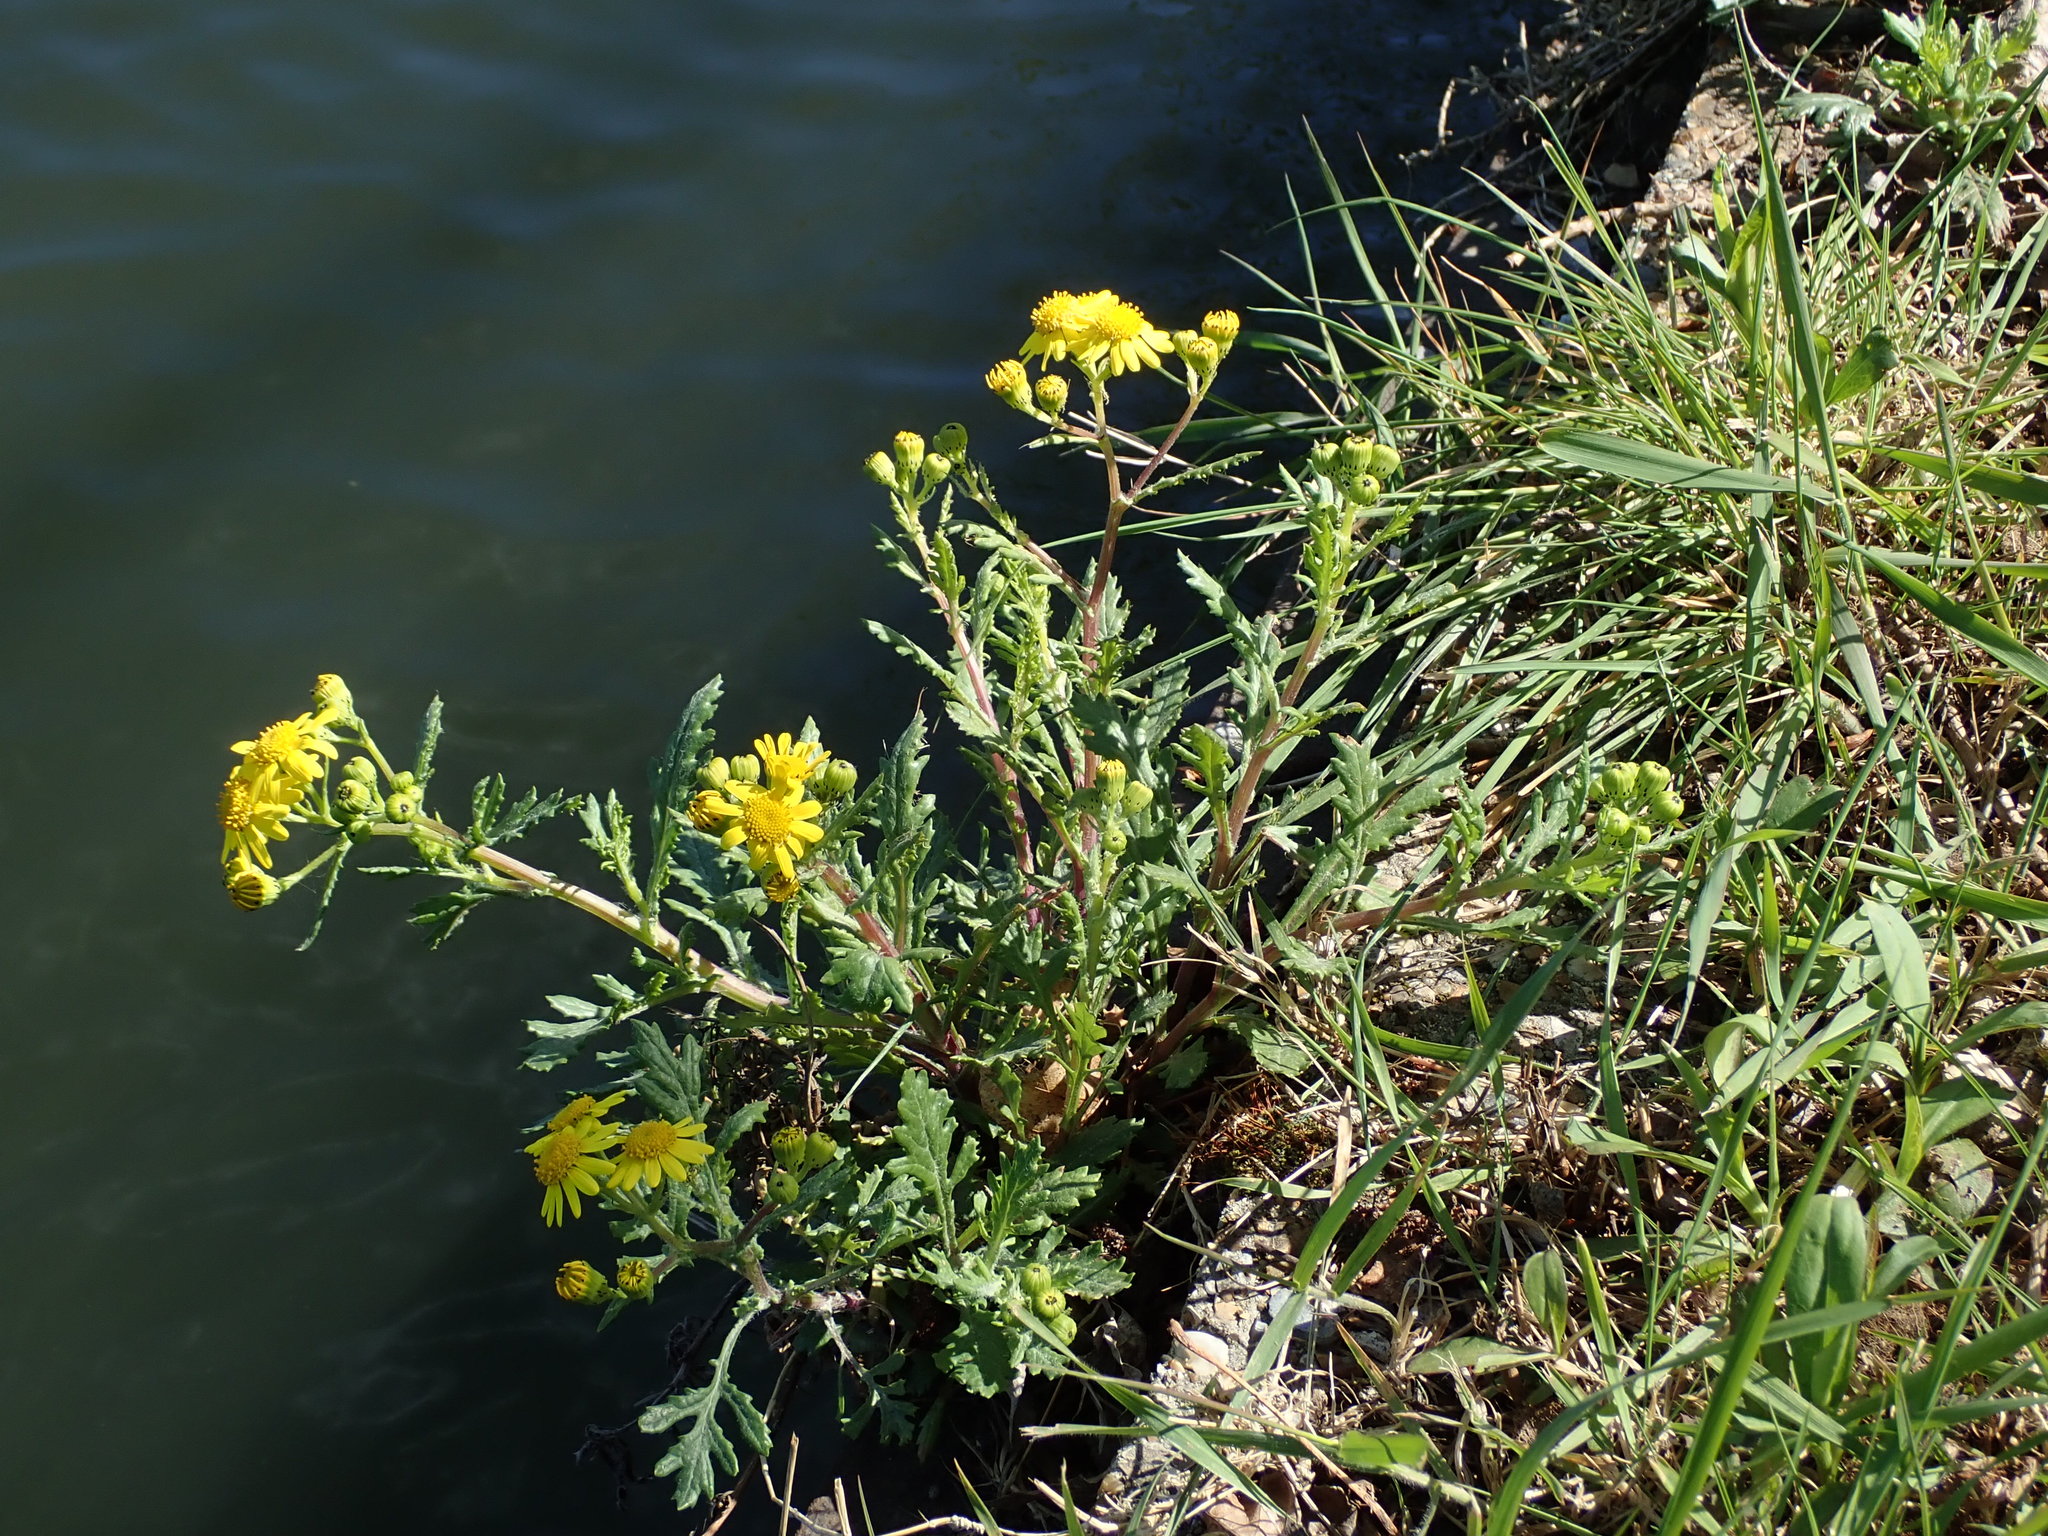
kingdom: Plantae
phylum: Tracheophyta
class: Magnoliopsida
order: Asterales
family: Asteraceae
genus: Senecio
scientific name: Senecio squalidus
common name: Oxford ragwort
